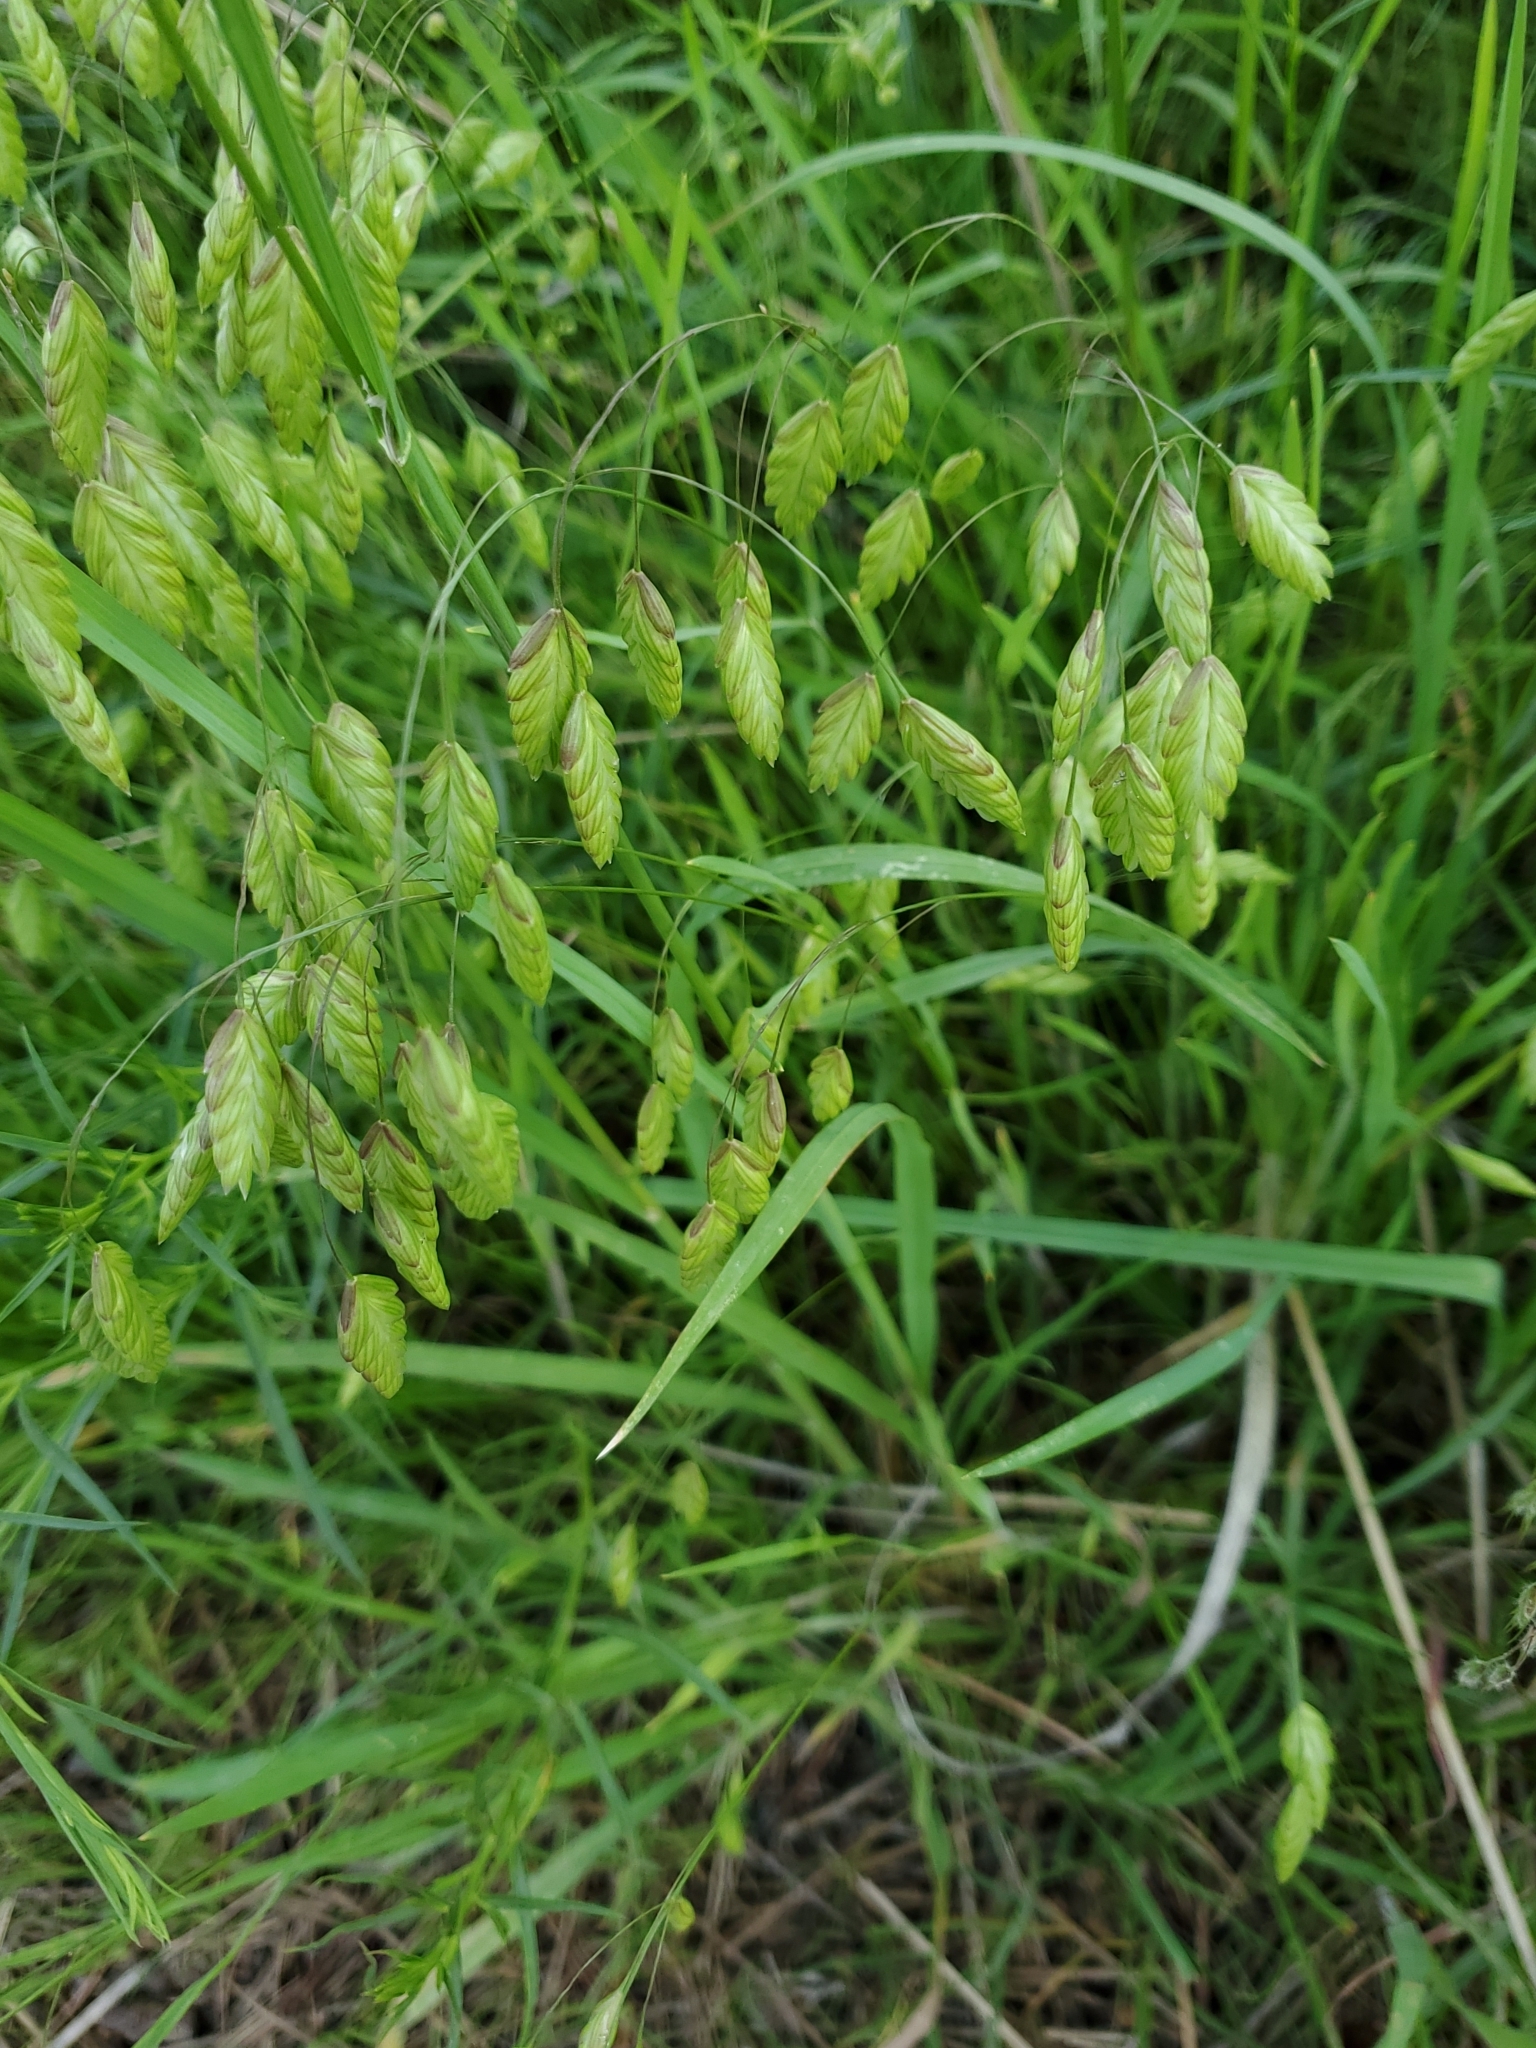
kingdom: Plantae
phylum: Tracheophyta
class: Liliopsida
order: Poales
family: Poaceae
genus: Bromus
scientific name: Bromus briziformis
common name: Rattlesnake brome
